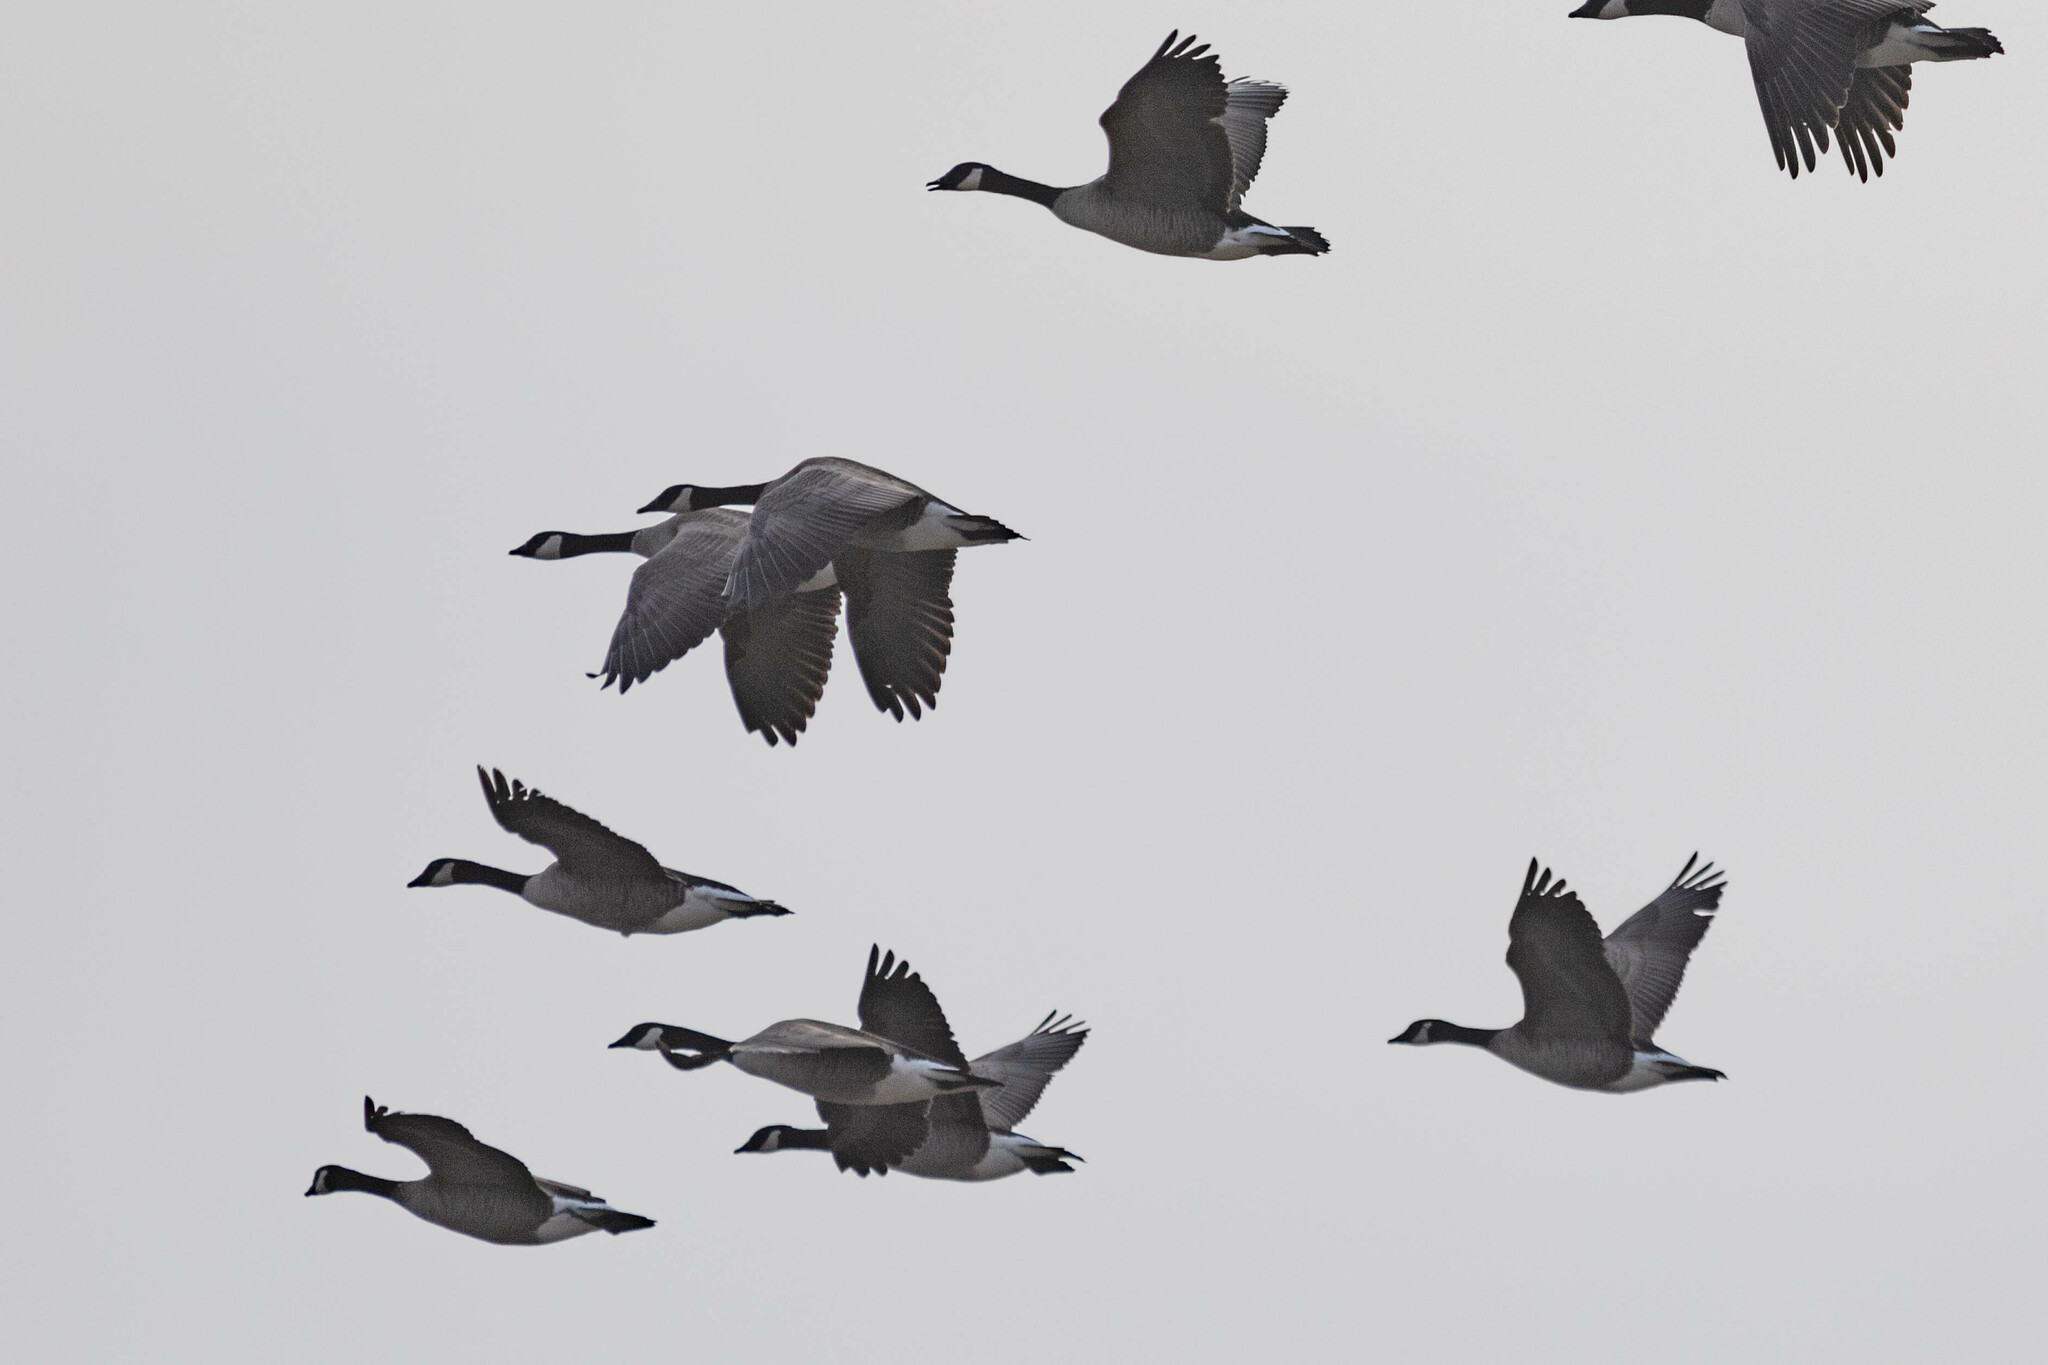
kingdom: Animalia
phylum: Chordata
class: Aves
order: Anseriformes
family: Anatidae
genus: Branta
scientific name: Branta canadensis
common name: Canada goose
